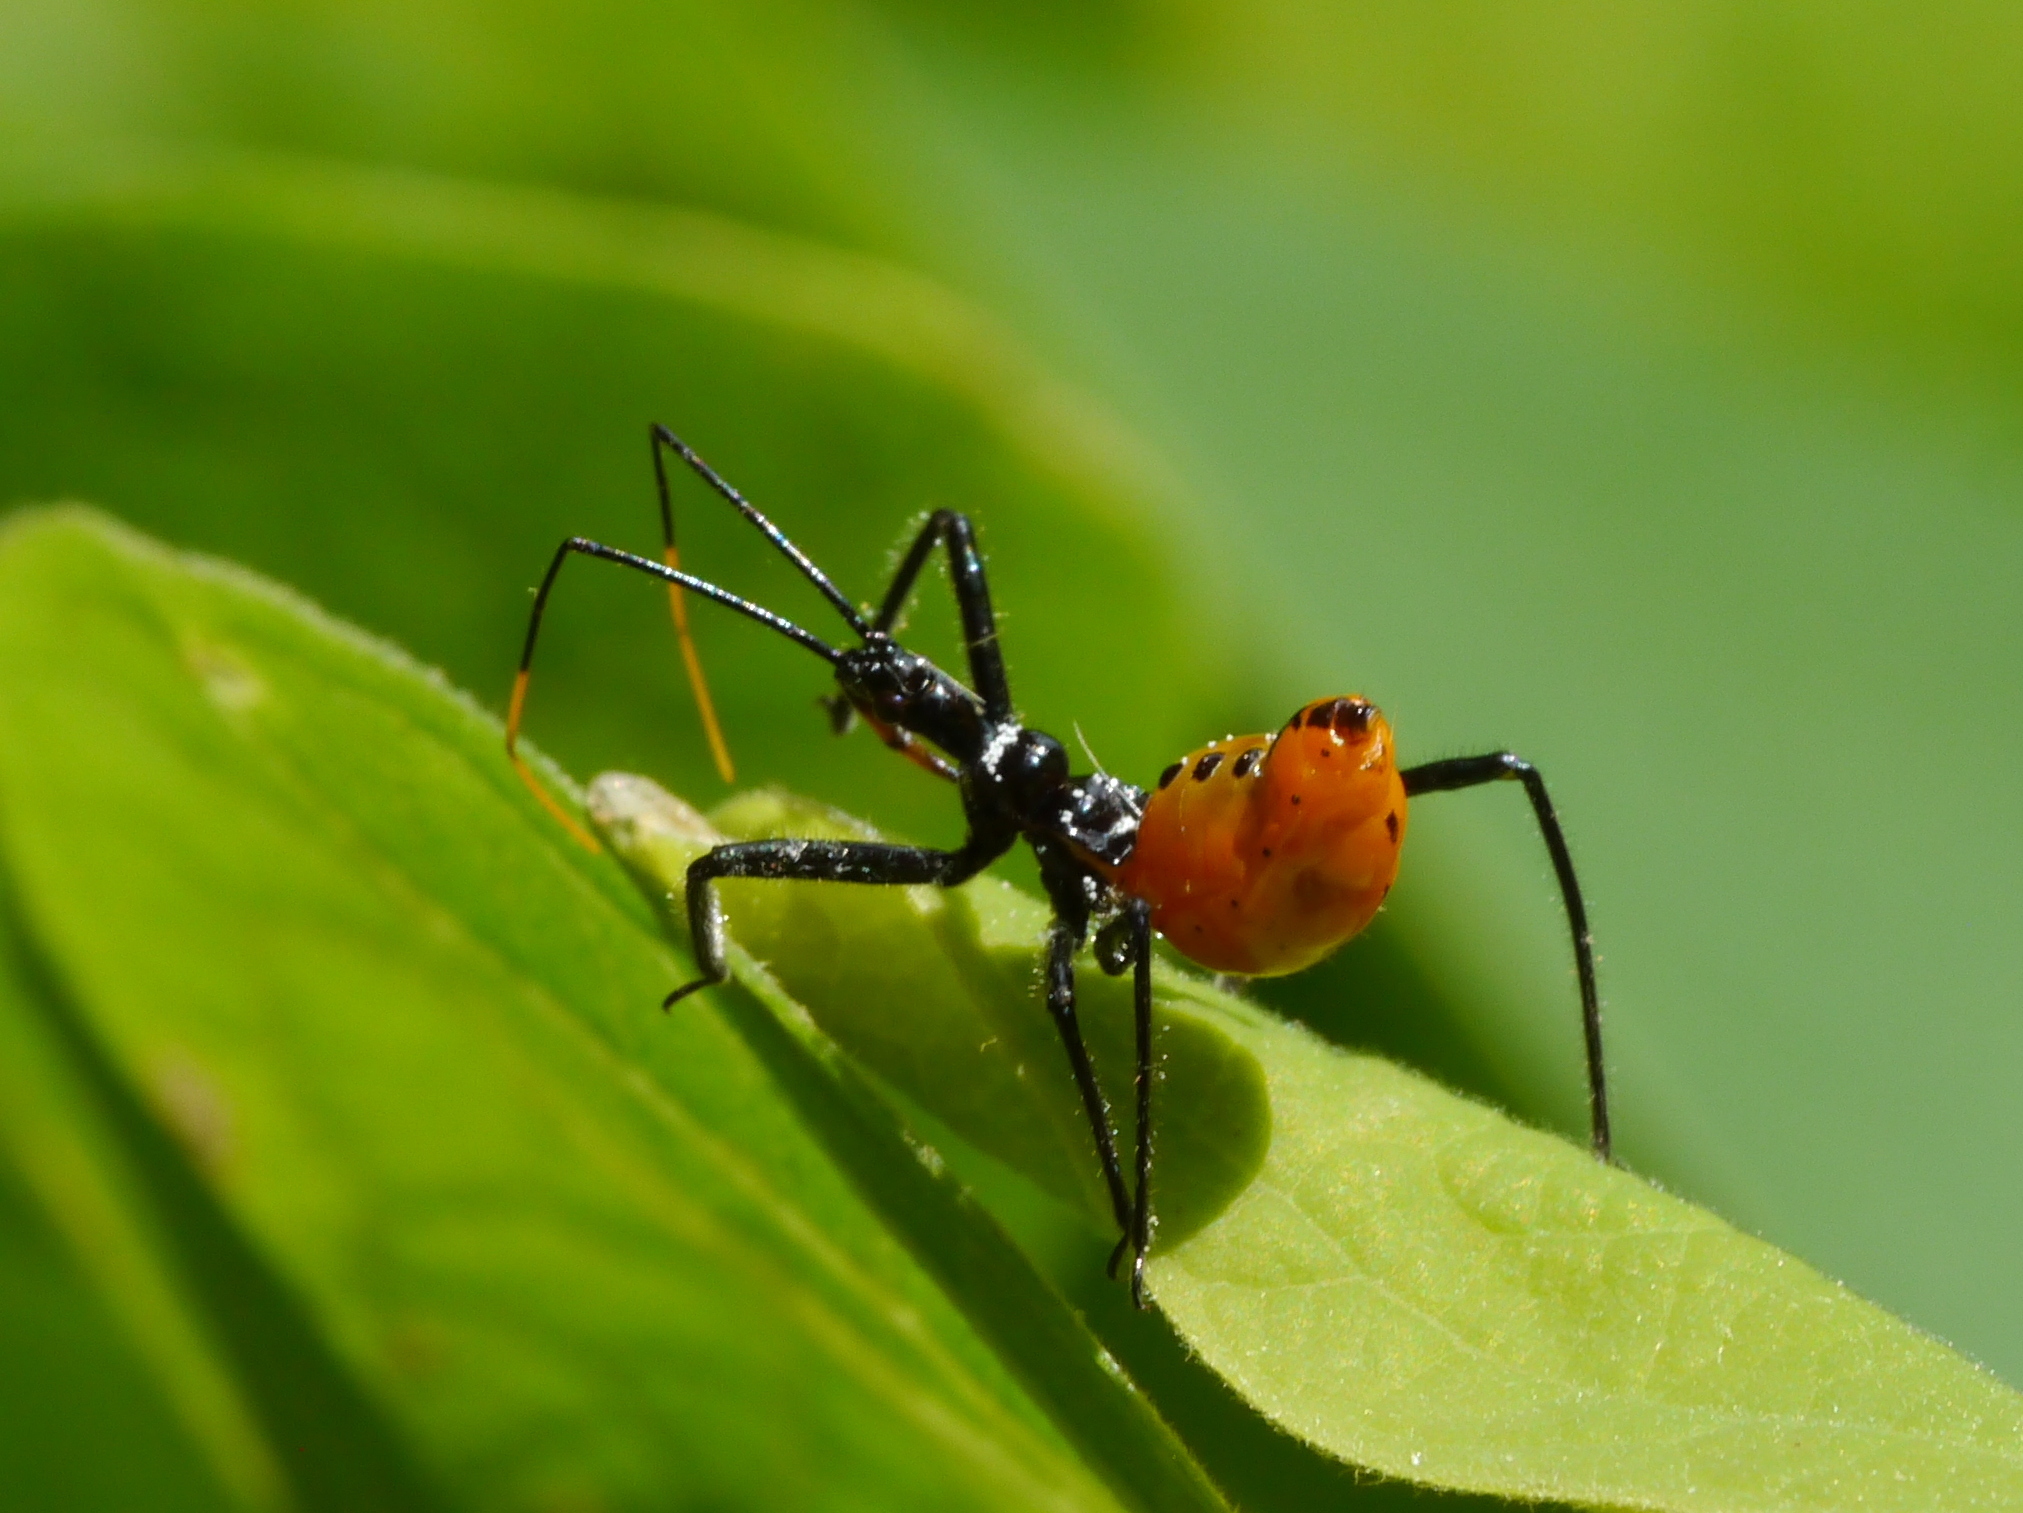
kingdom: Animalia
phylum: Arthropoda
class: Insecta
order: Hemiptera
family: Reduviidae
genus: Arilus
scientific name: Arilus cristatus
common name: North american wheel bug
